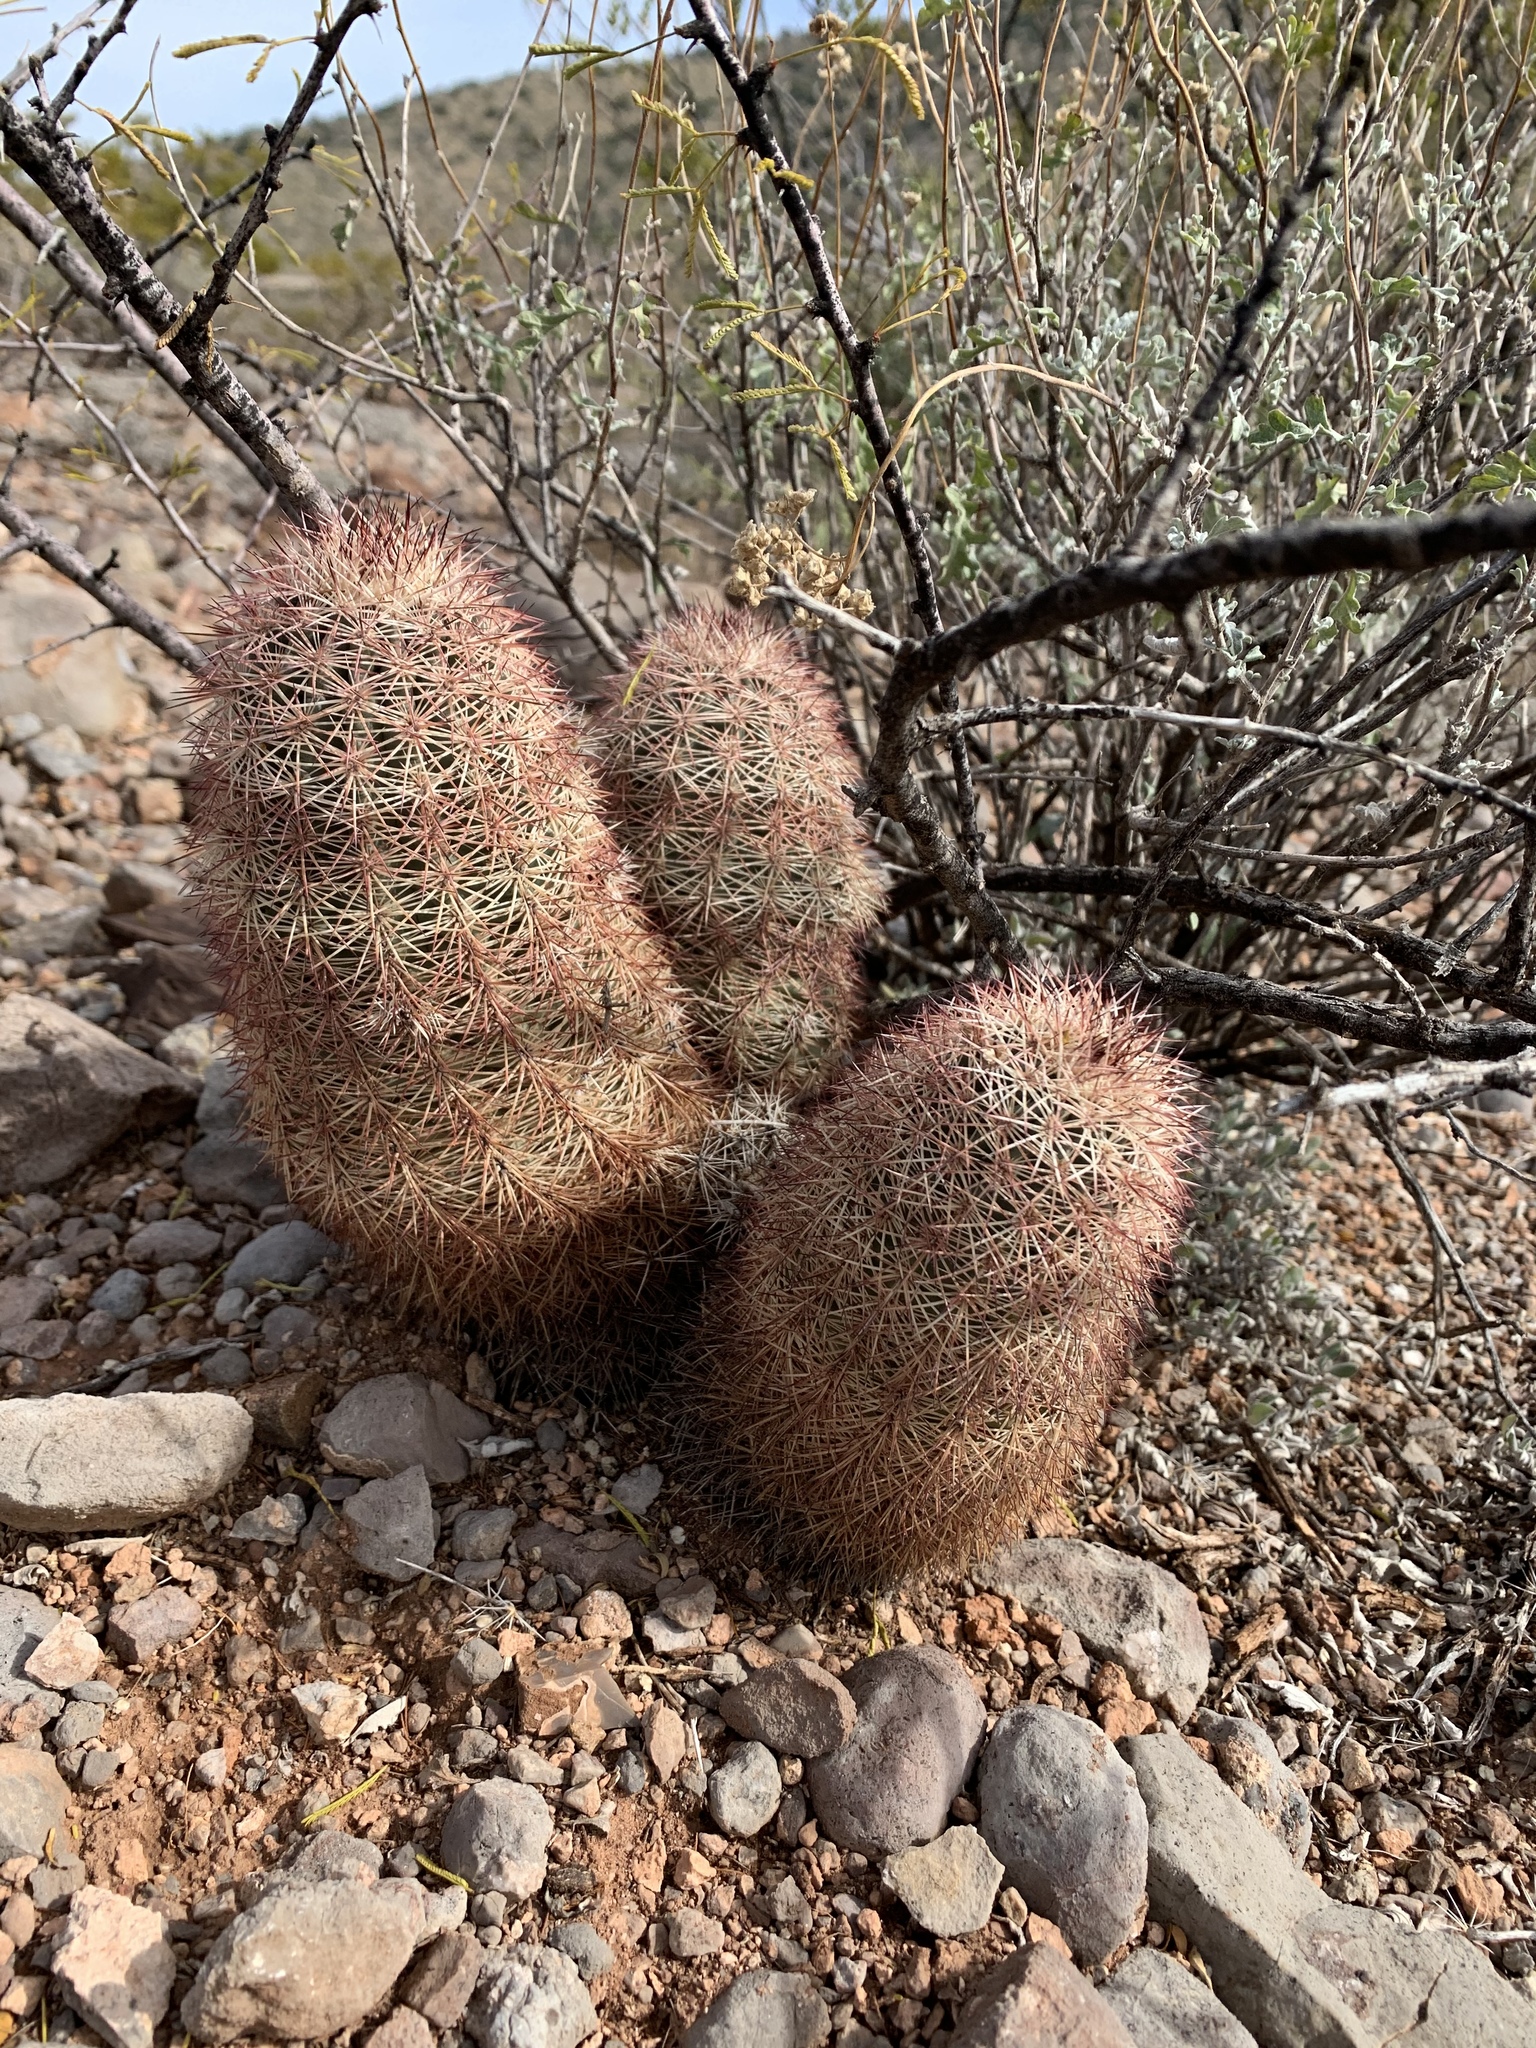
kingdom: Plantae
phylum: Tracheophyta
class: Magnoliopsida
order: Caryophyllales
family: Cactaceae
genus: Echinocereus
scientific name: Echinocereus dasyacanthus
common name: Spiny hedgehog cactus
